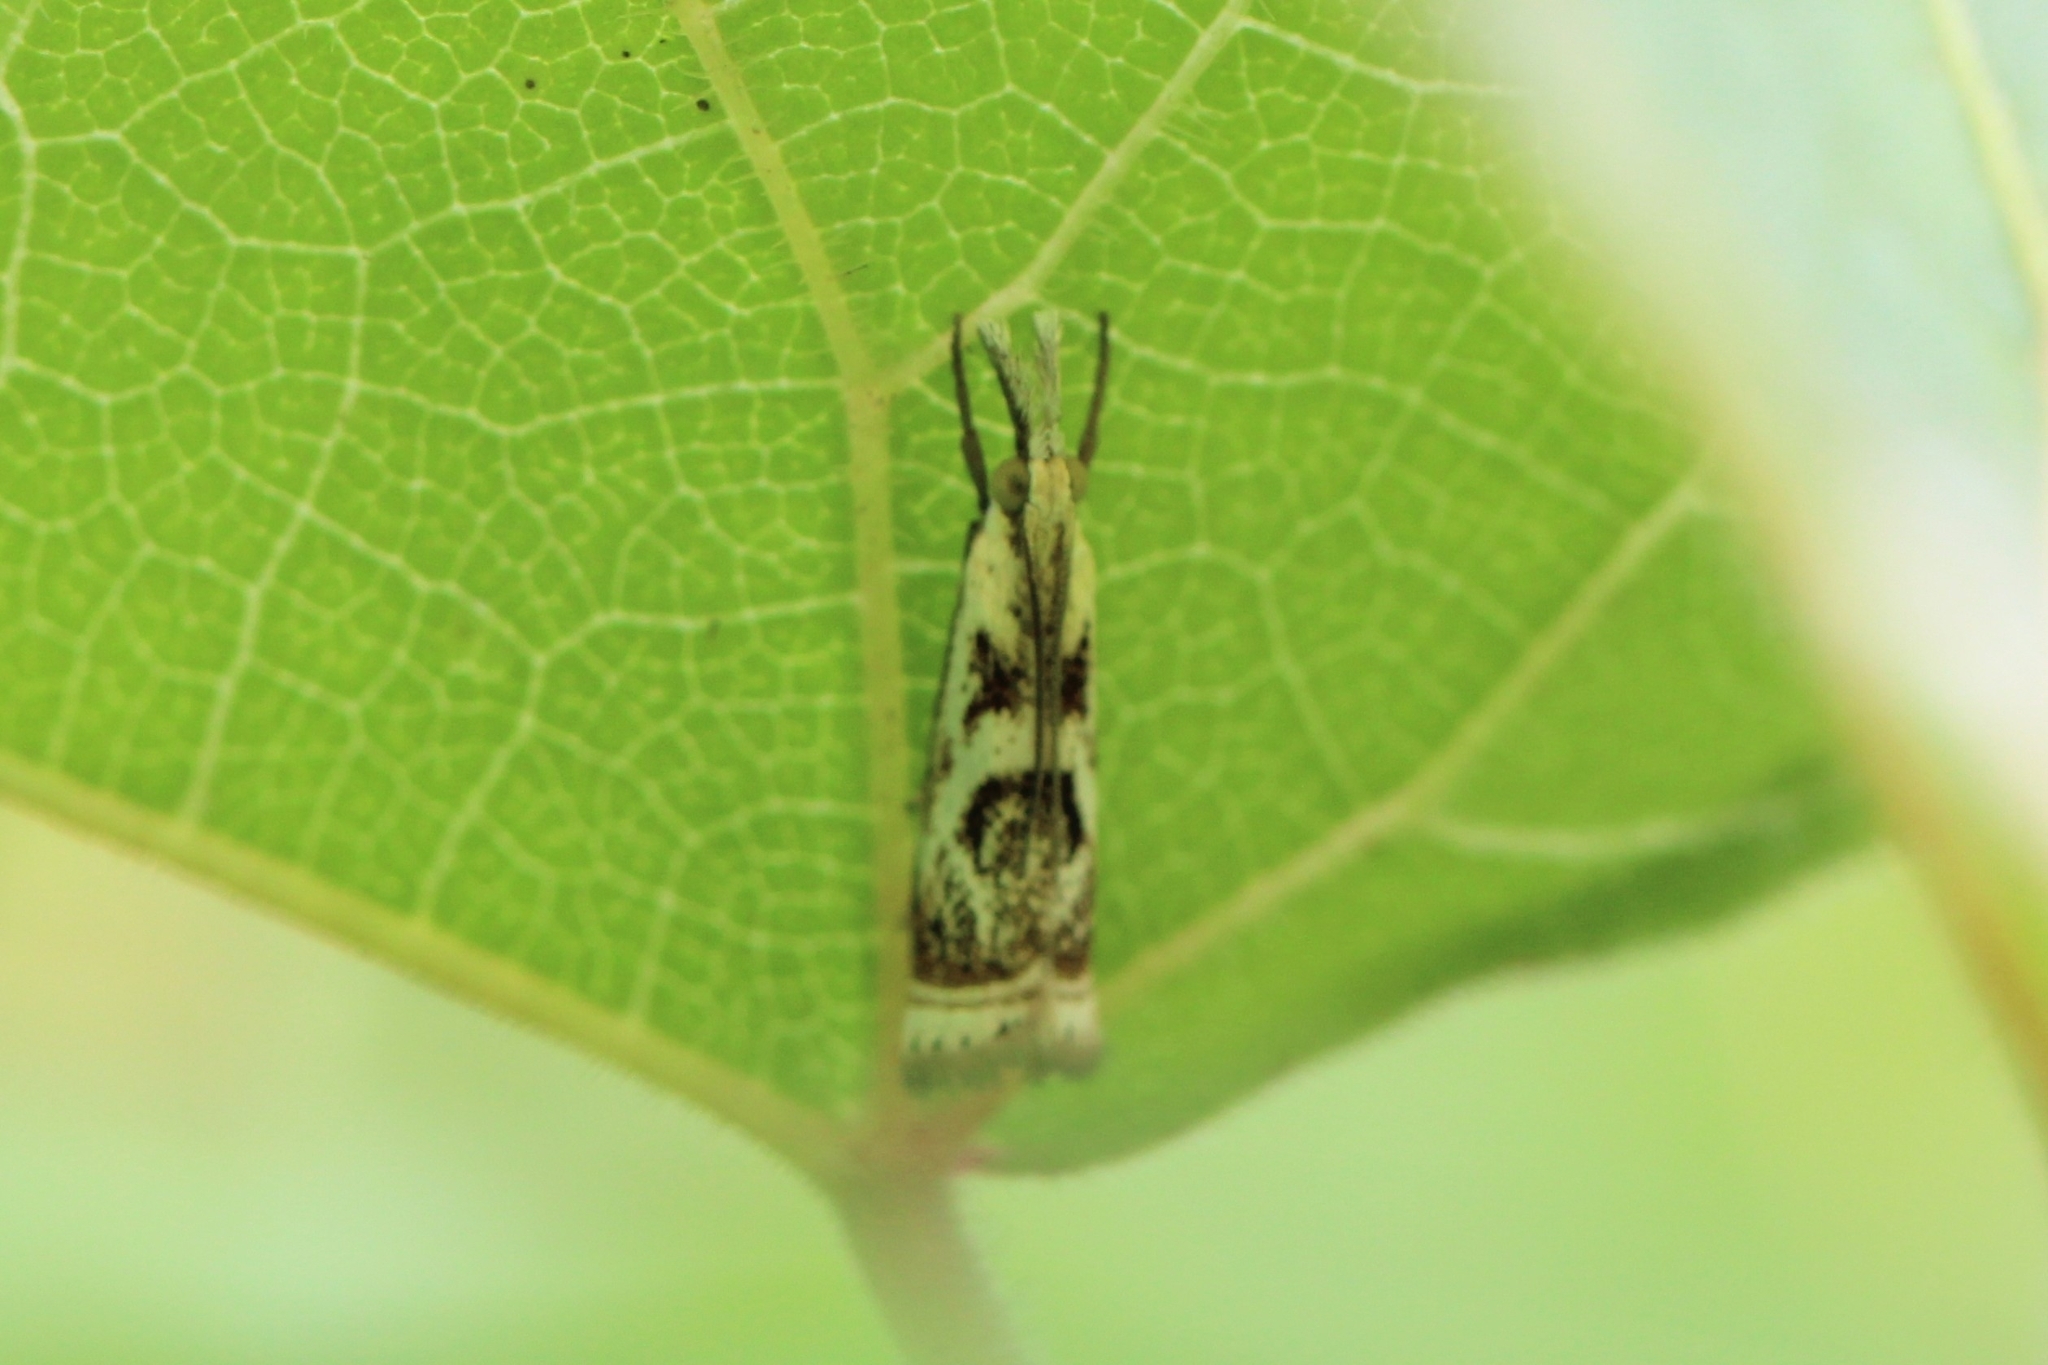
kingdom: Animalia
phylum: Arthropoda
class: Insecta
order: Lepidoptera
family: Crambidae
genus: Microcrambus
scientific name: Microcrambus elegans
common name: Elegant grass-veneer
